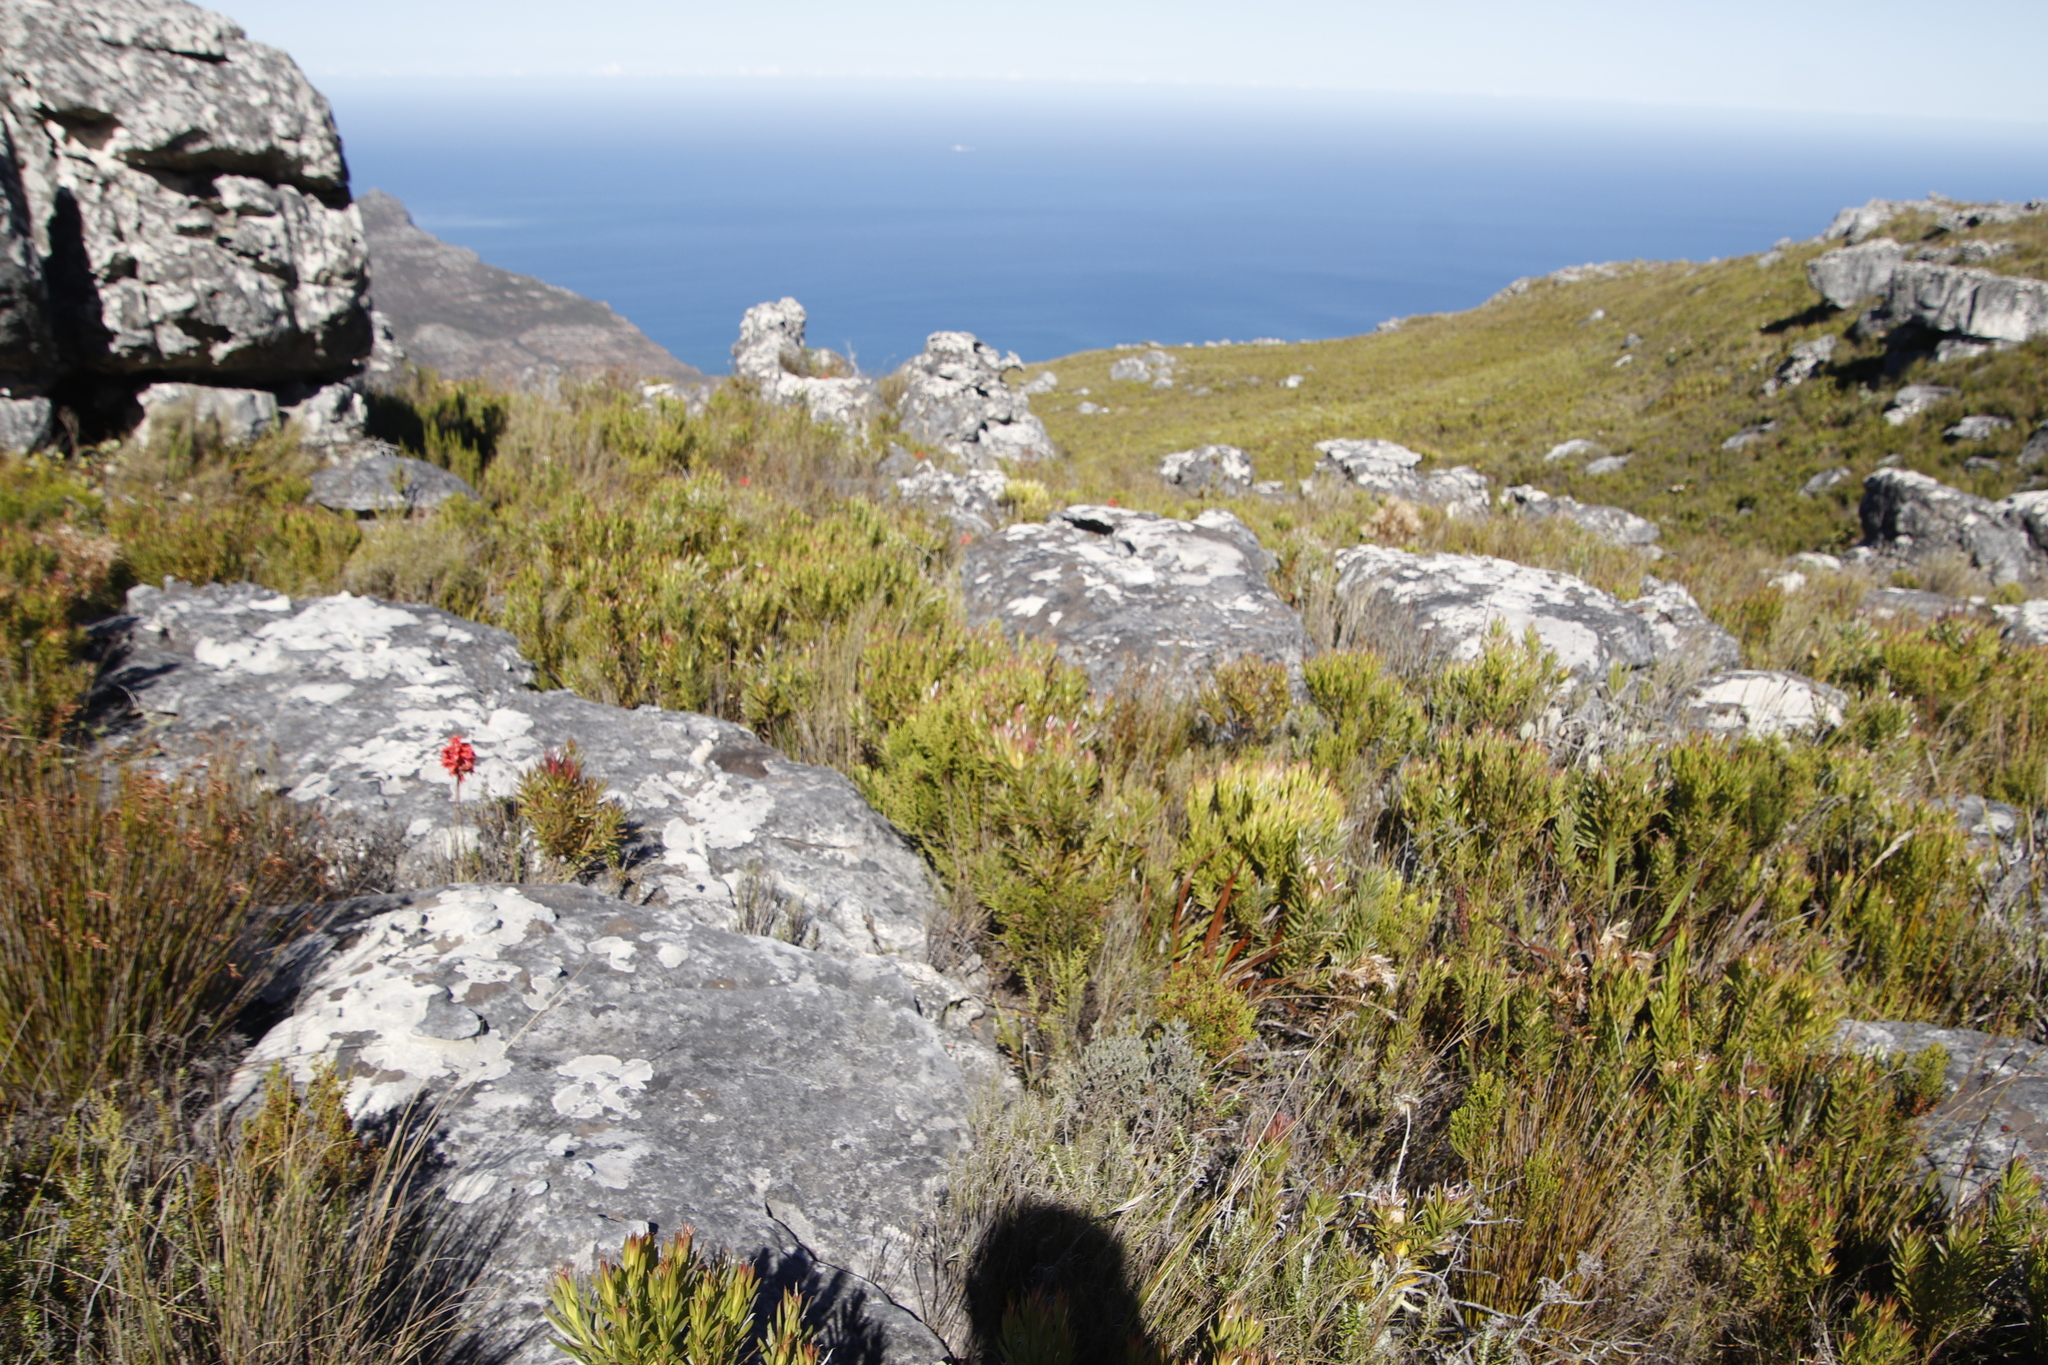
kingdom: Plantae
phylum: Tracheophyta
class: Magnoliopsida
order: Proteales
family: Proteaceae
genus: Leucadendron
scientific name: Leucadendron xanthoconus
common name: Sickle-leaf conebush
